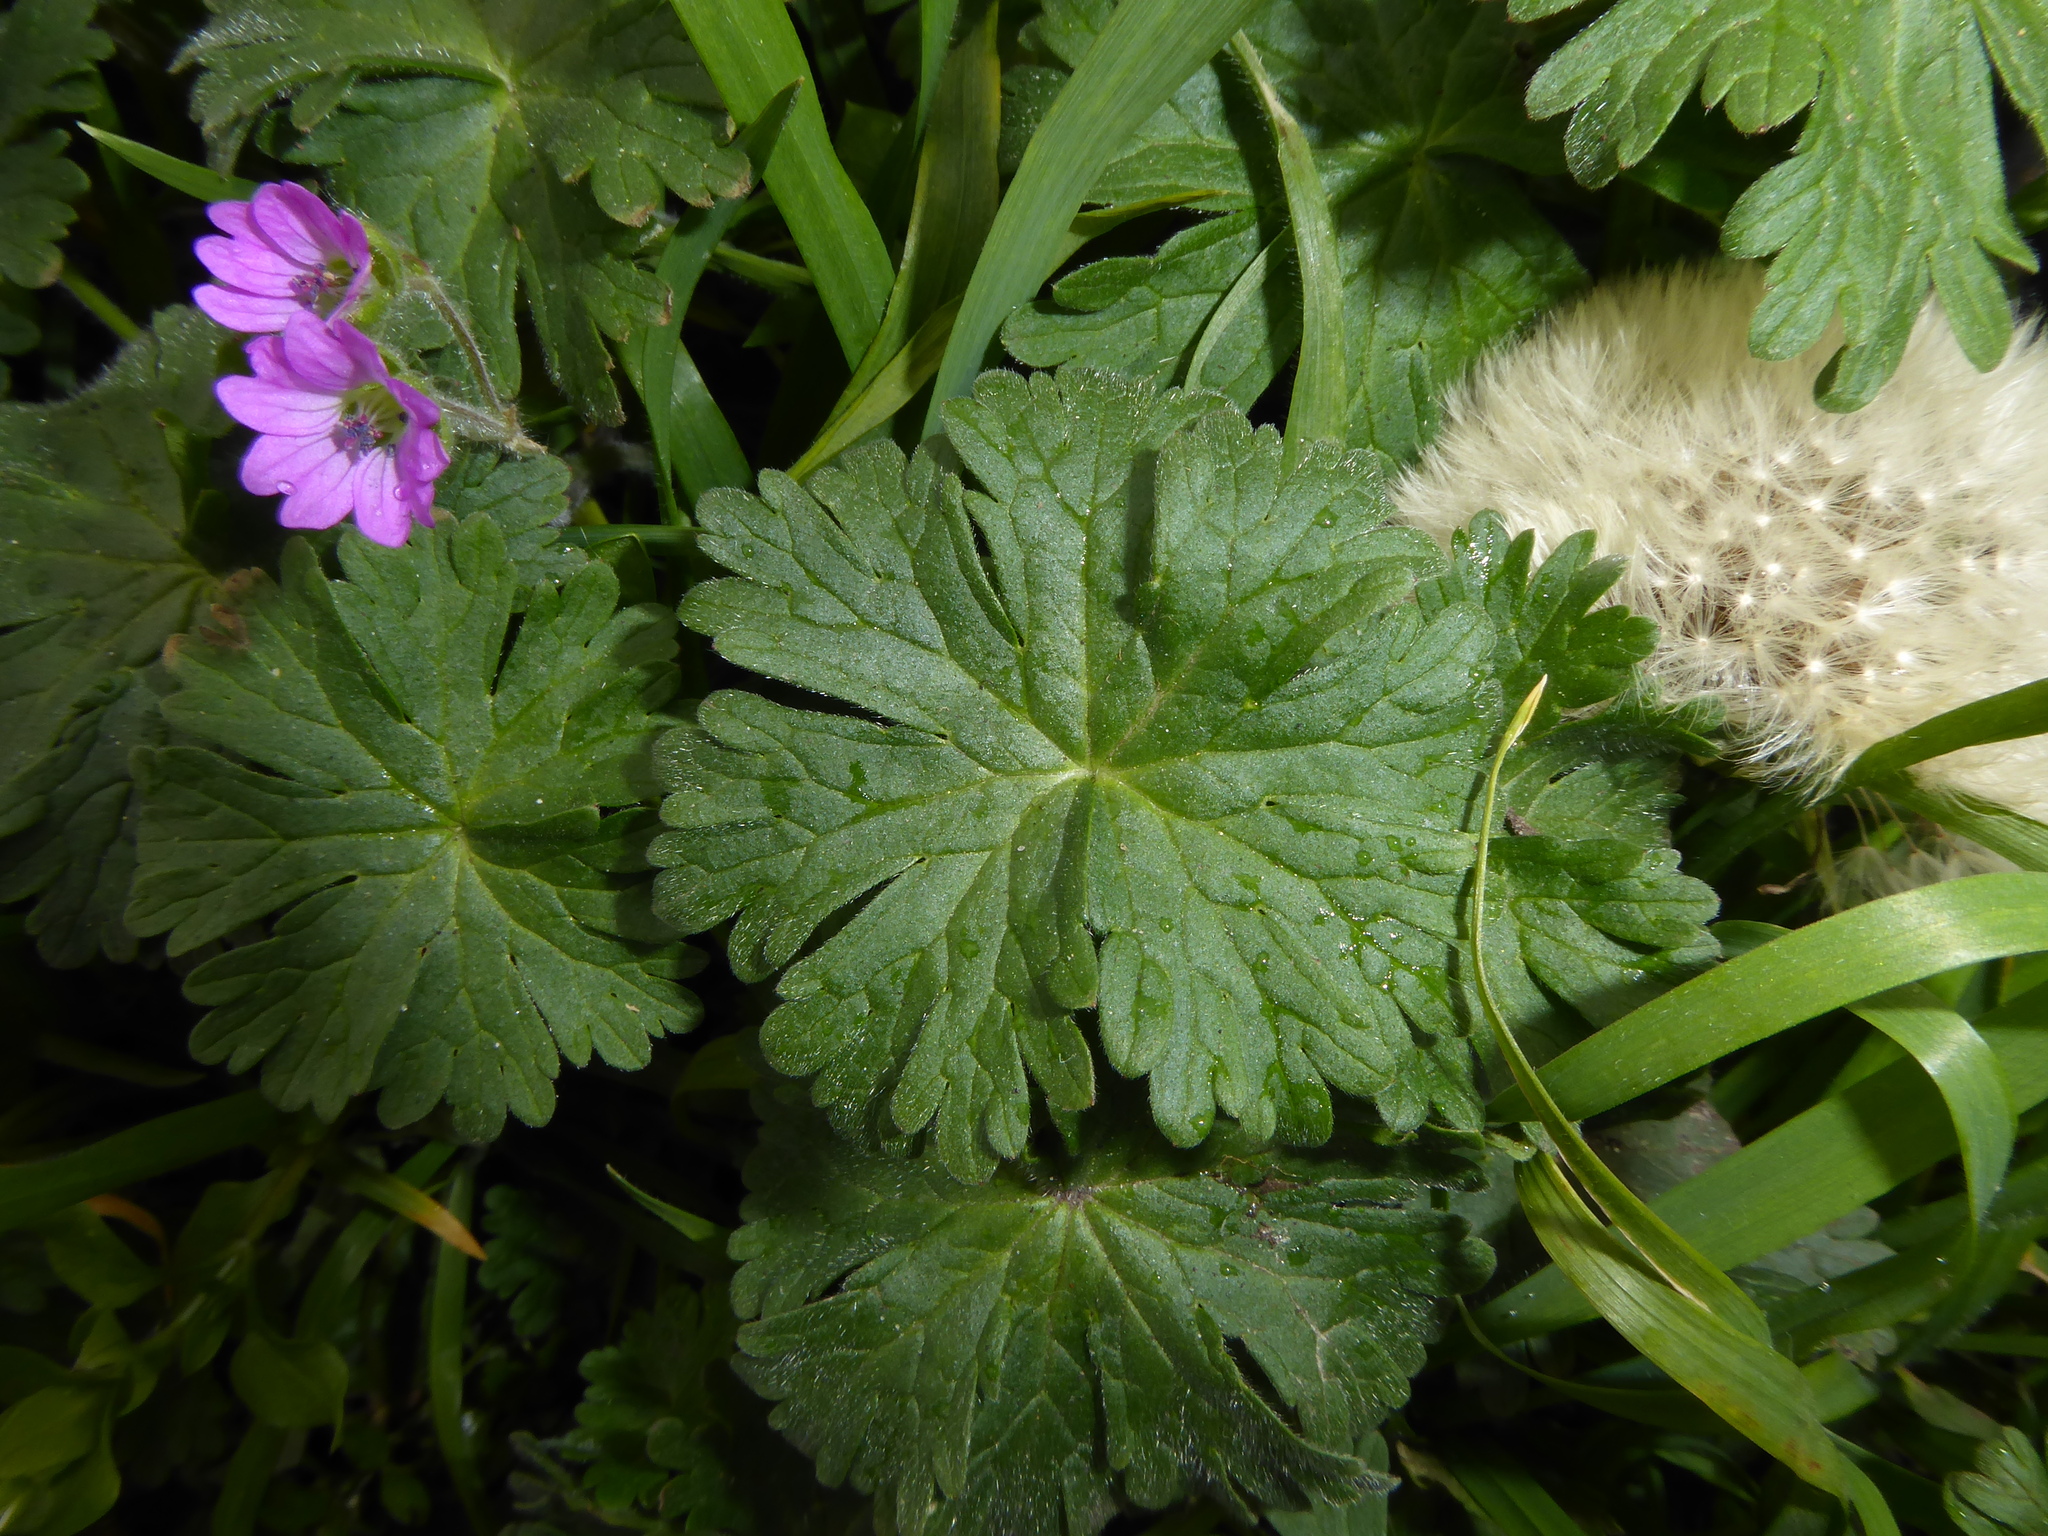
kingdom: Plantae
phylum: Tracheophyta
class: Magnoliopsida
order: Geraniales
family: Geraniaceae
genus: Geranium
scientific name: Geranium molle
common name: Dove's-foot crane's-bill
